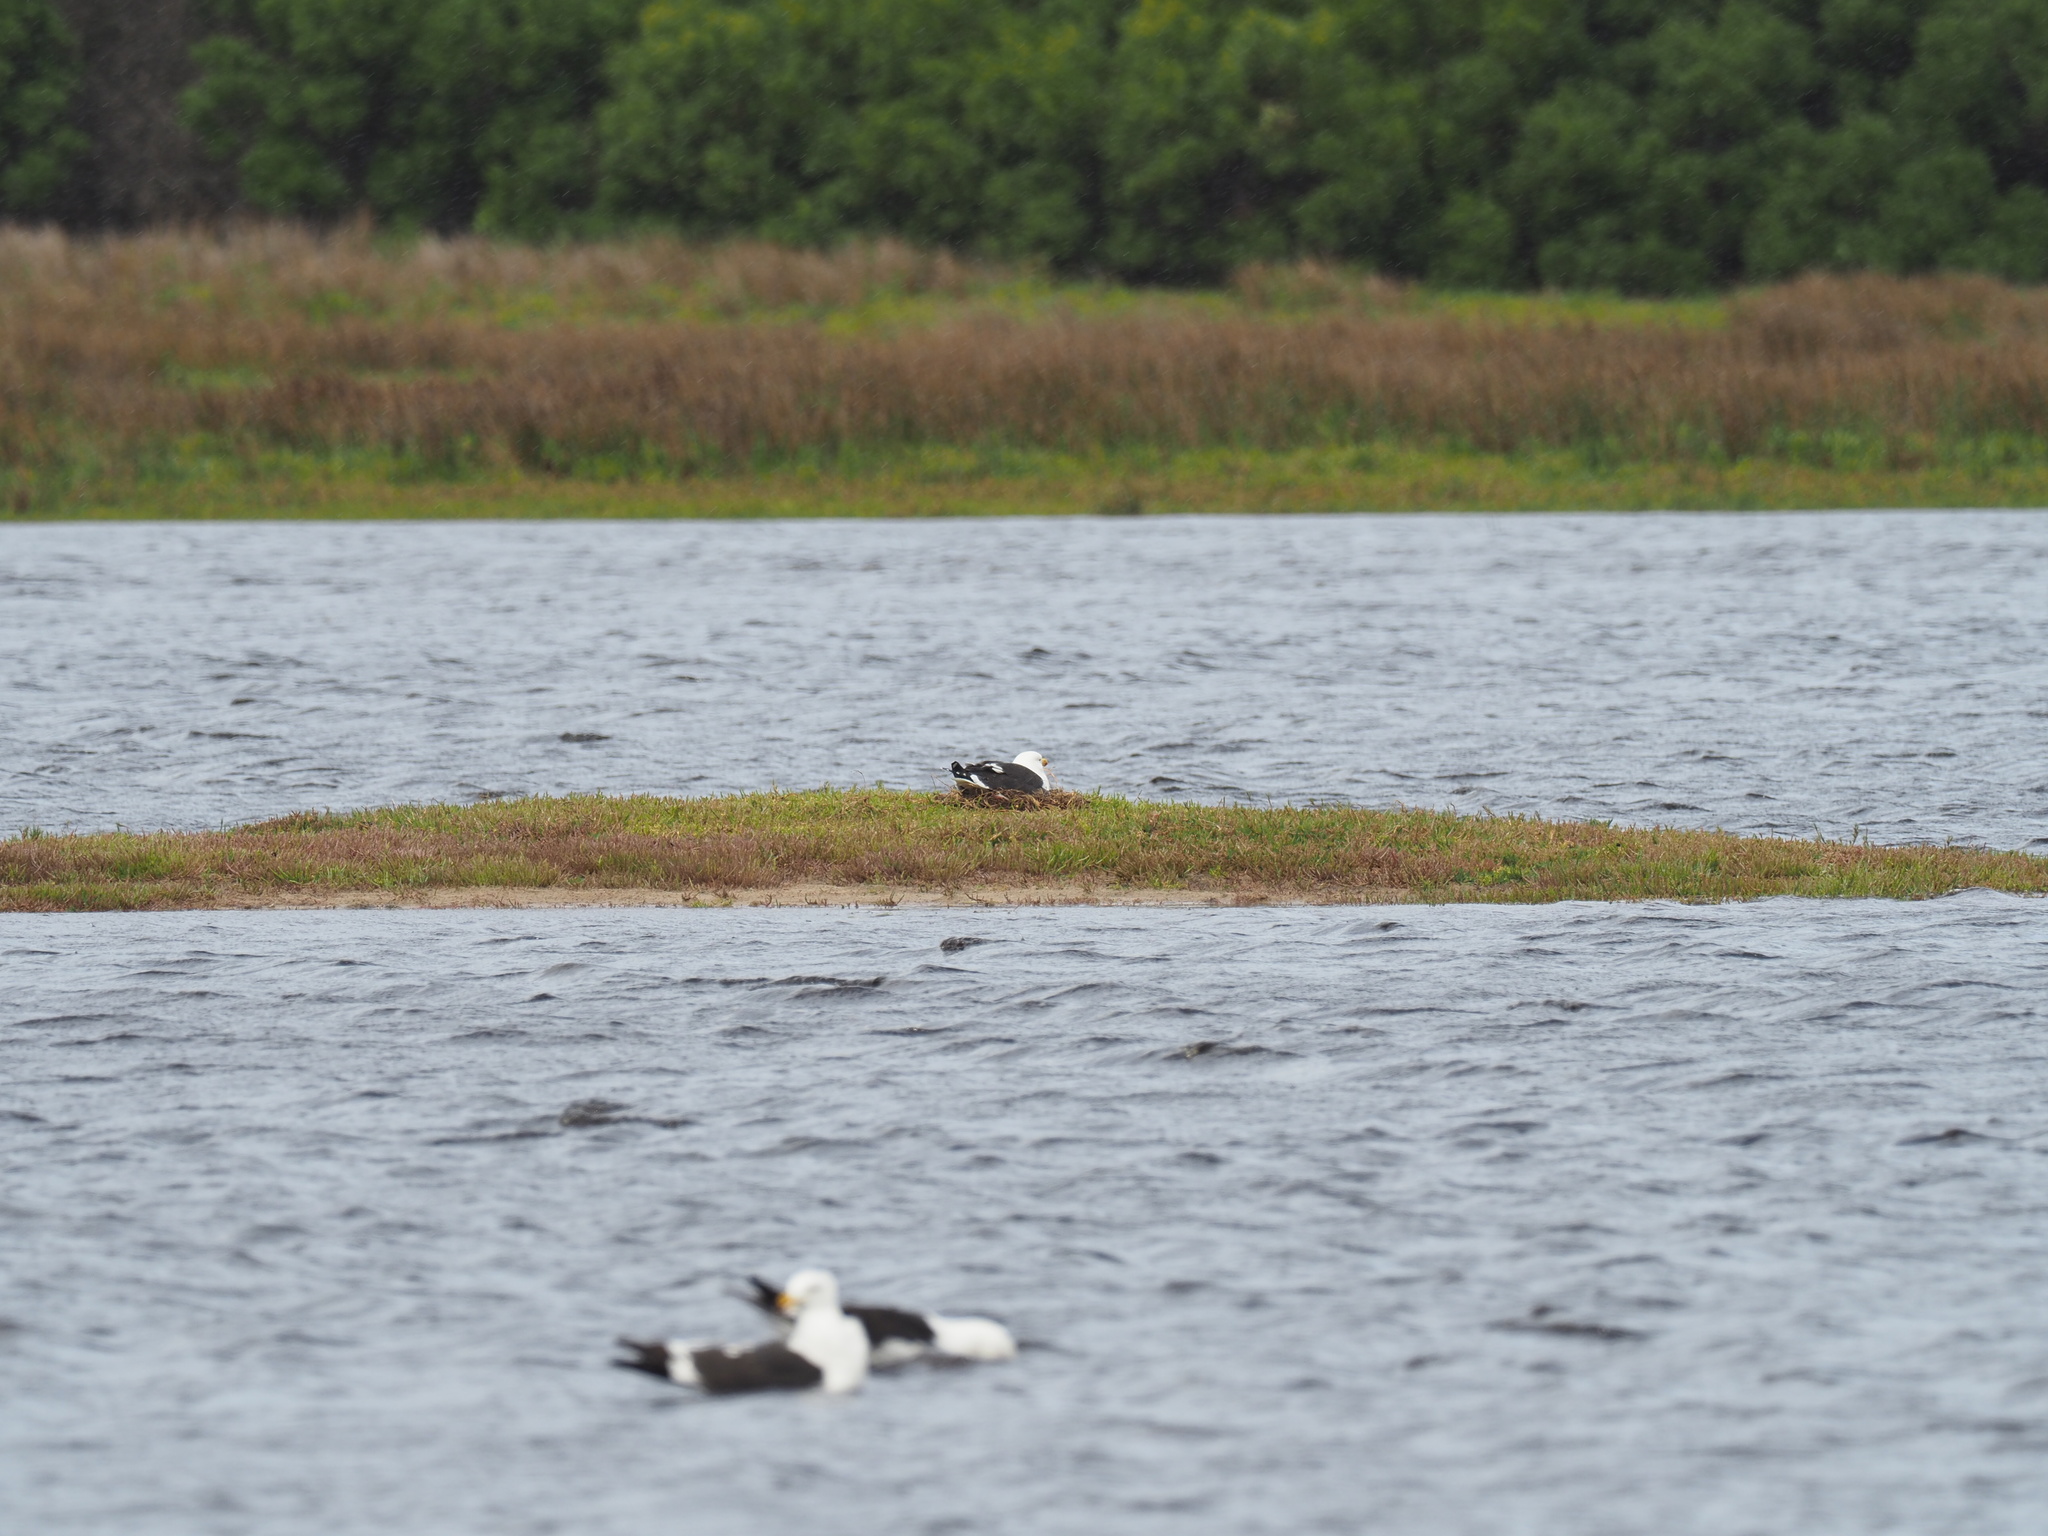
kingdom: Animalia
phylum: Chordata
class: Aves
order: Charadriiformes
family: Laridae
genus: Larus
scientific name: Larus dominicanus
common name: Kelp gull
